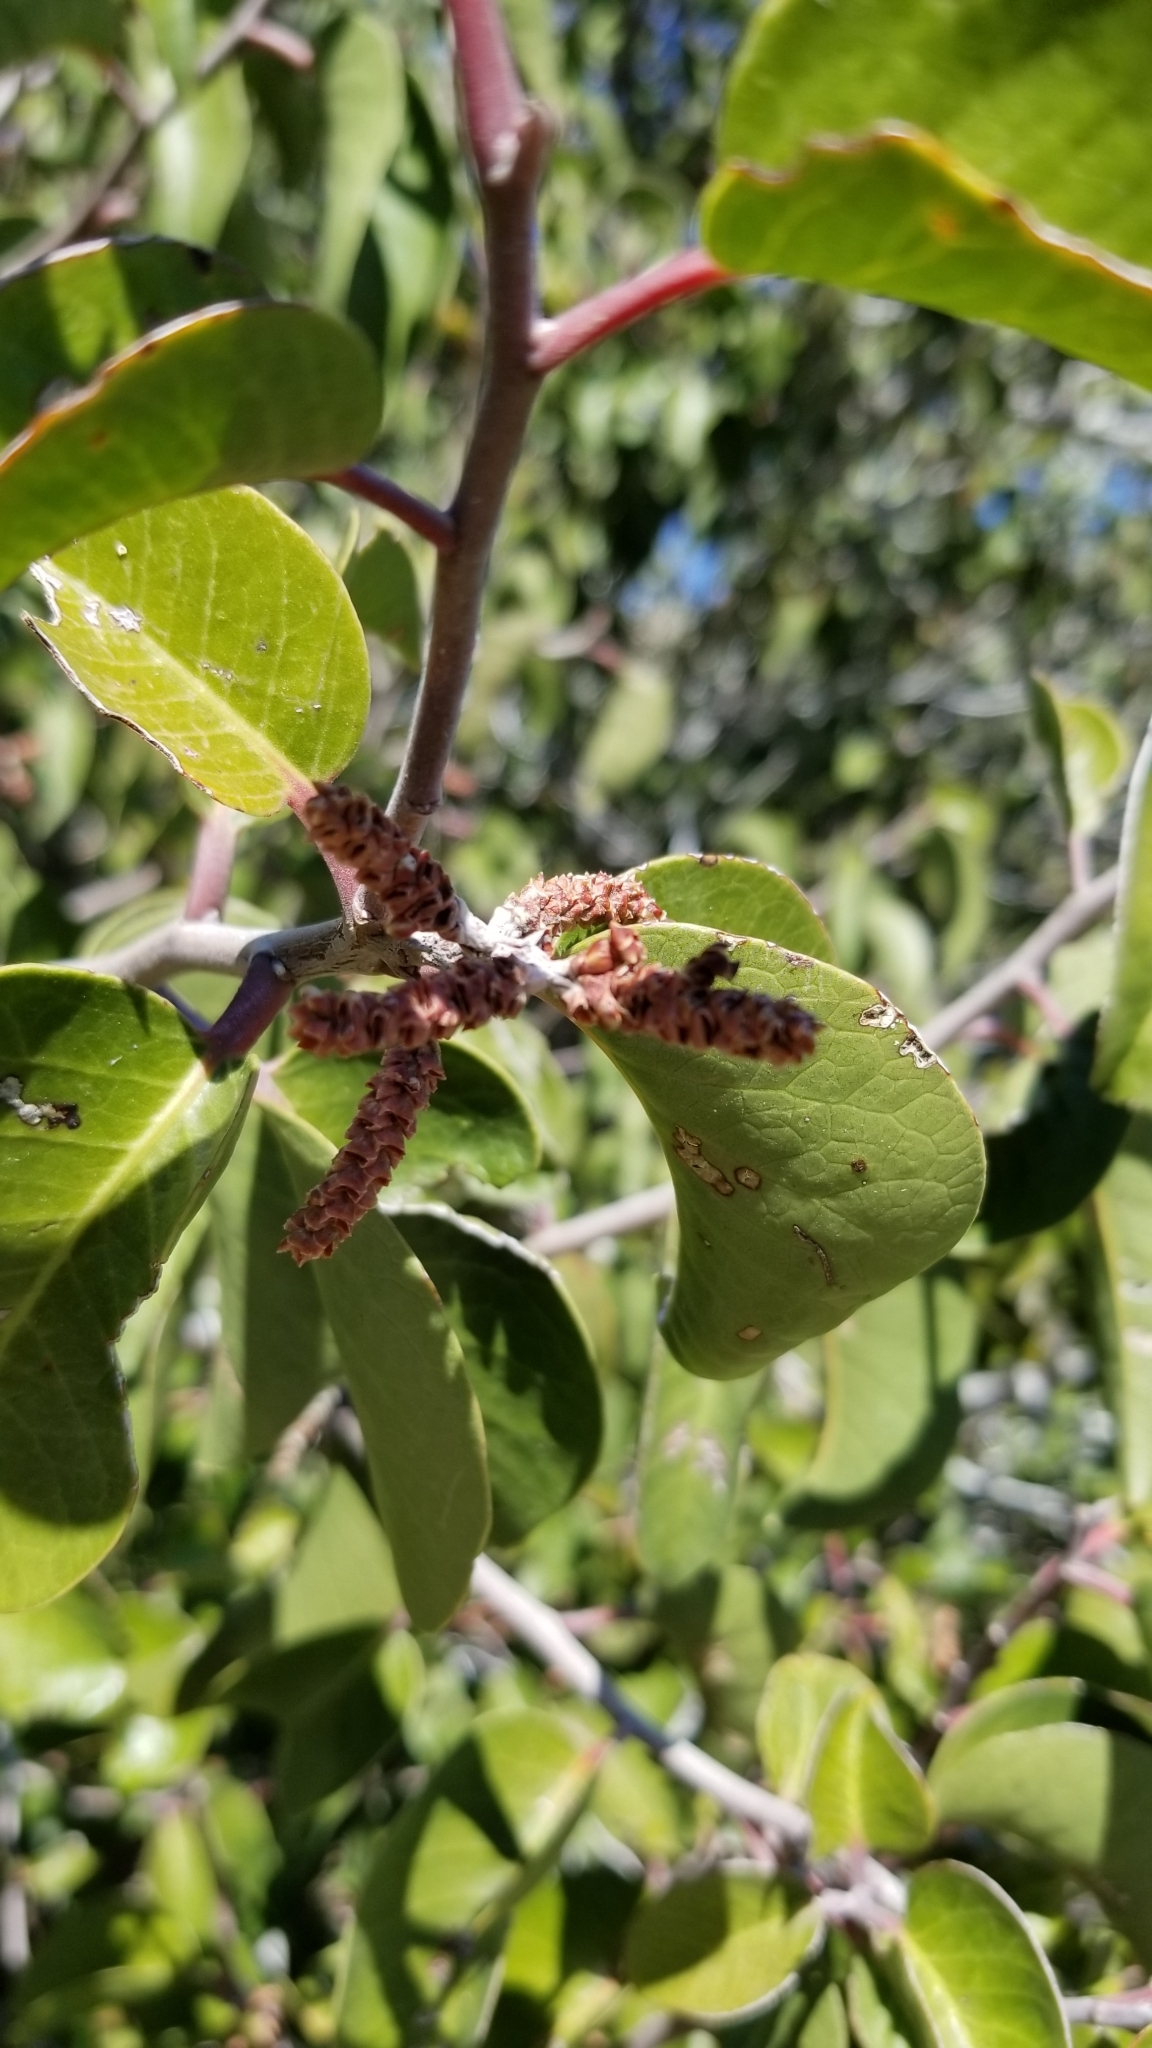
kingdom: Plantae
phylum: Tracheophyta
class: Magnoliopsida
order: Sapindales
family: Anacardiaceae
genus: Rhus
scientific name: Rhus ovata
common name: Sugar sumac
